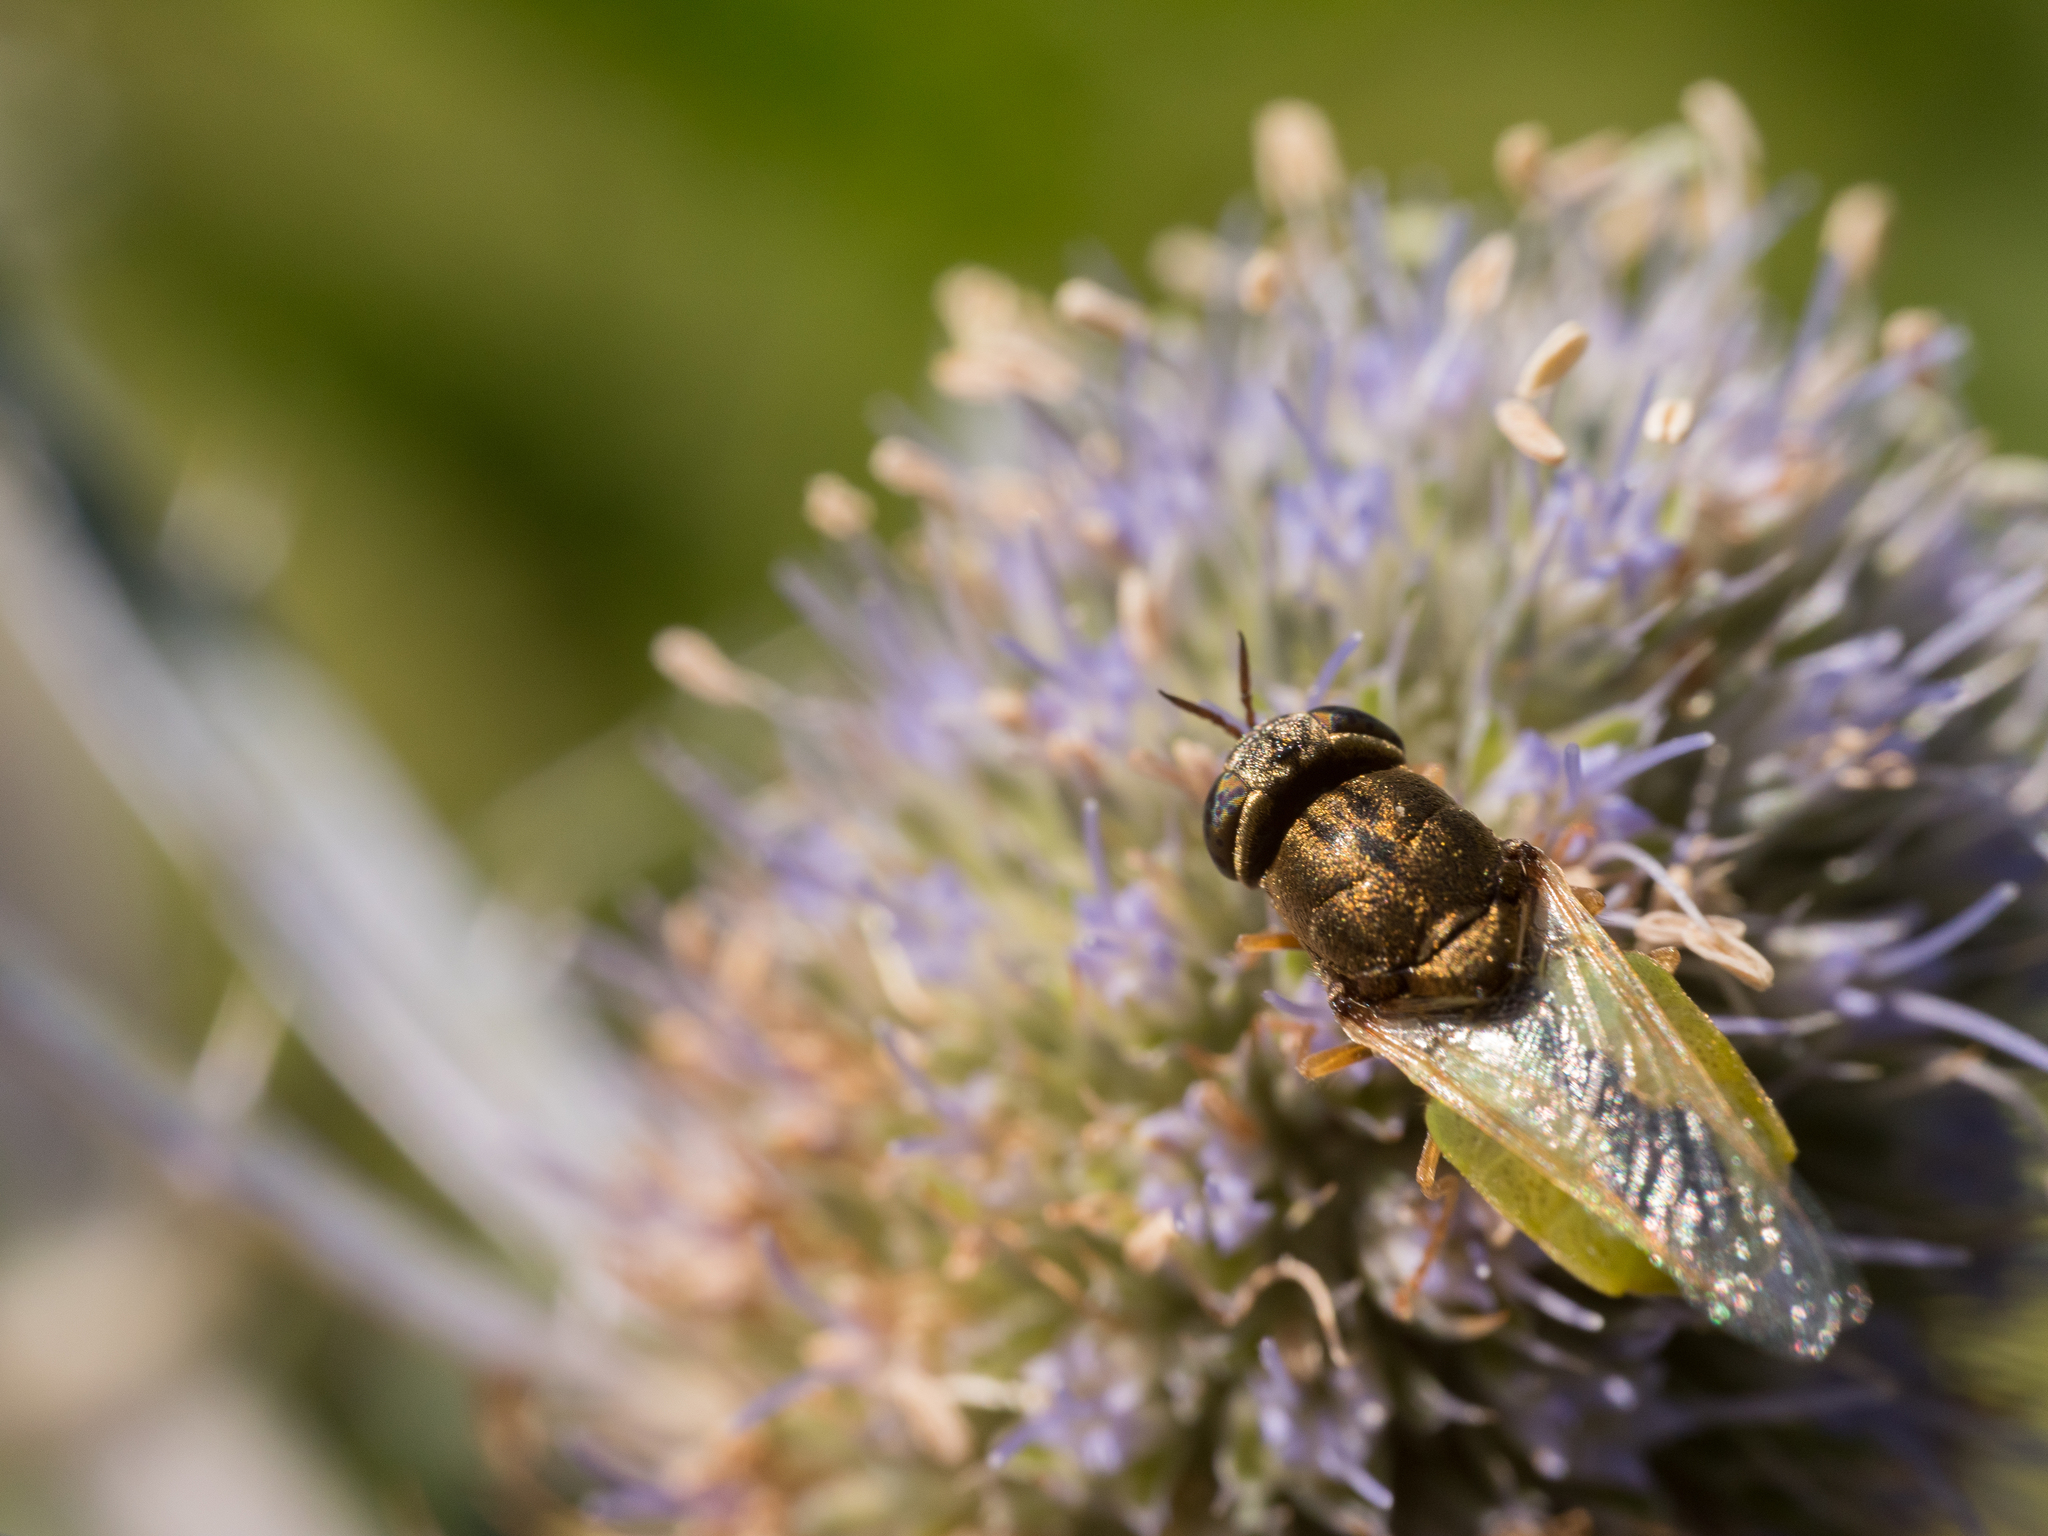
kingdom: Animalia
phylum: Arthropoda
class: Insecta
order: Diptera
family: Stratiomyidae
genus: Oplodontha
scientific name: Oplodontha viridula
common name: Common green colonel
